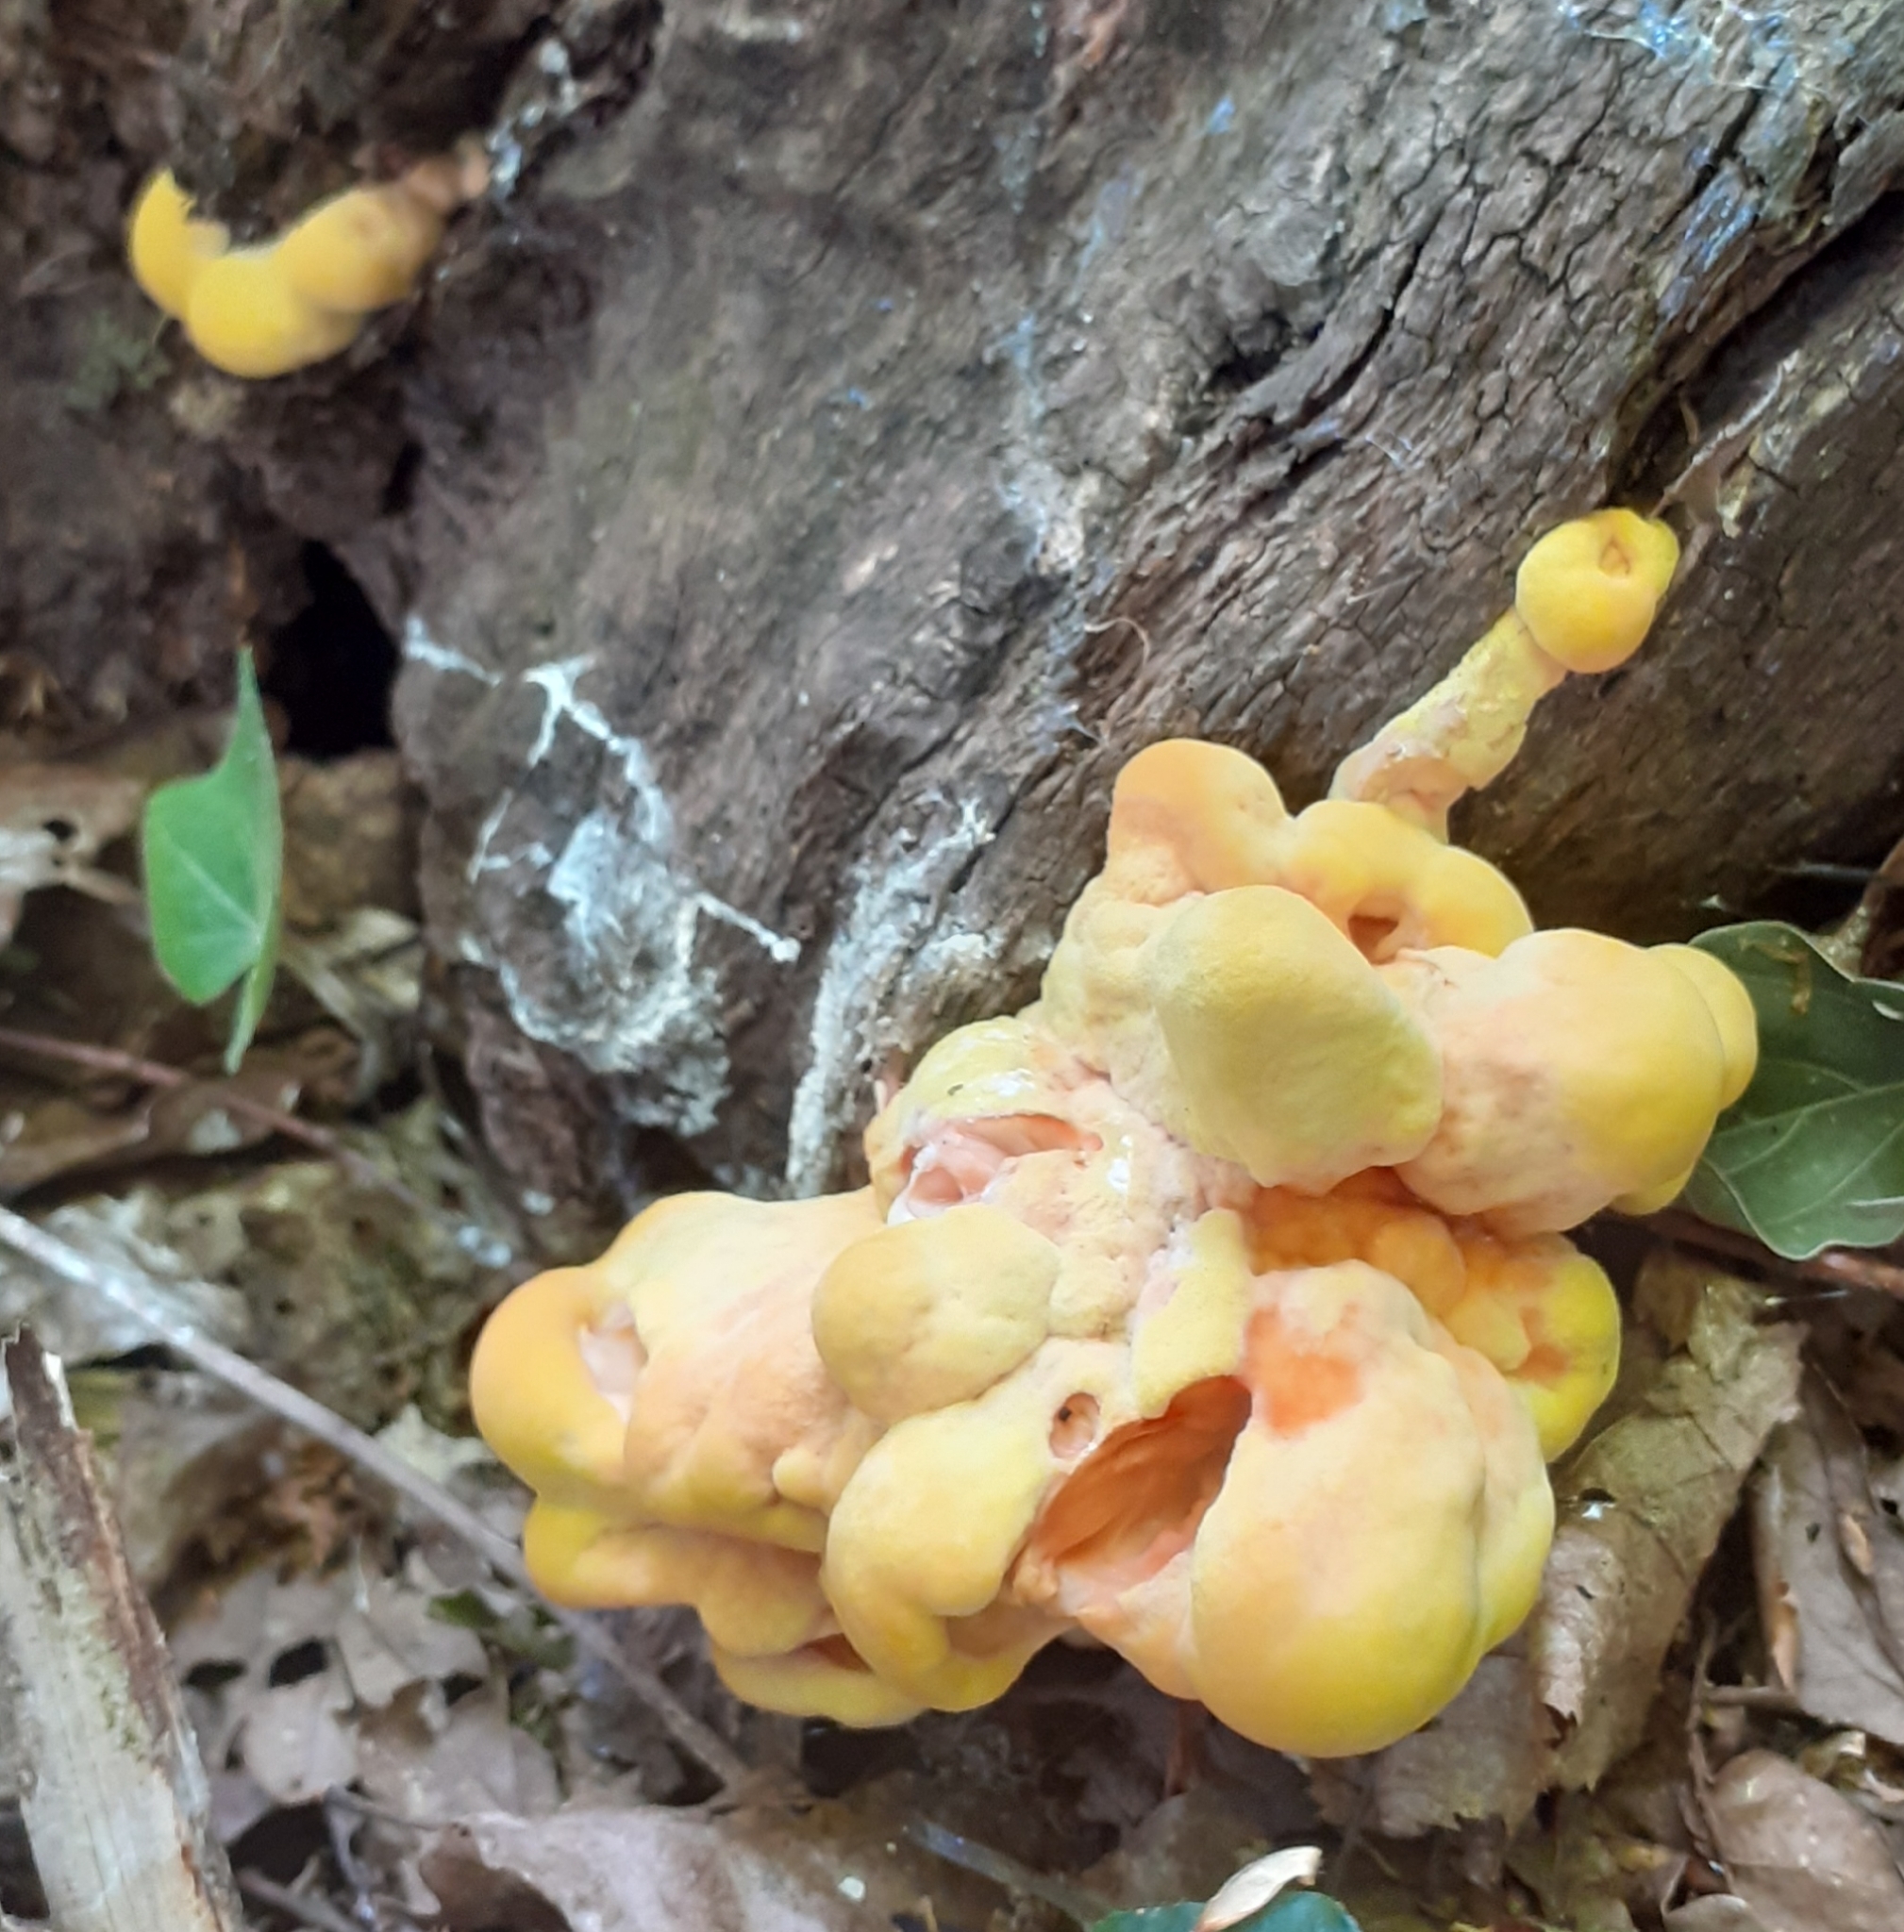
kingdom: Fungi
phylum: Basidiomycota
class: Agaricomycetes
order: Polyporales
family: Laetiporaceae
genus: Laetiporus
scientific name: Laetiporus sulphureus
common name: Chicken of the woods
